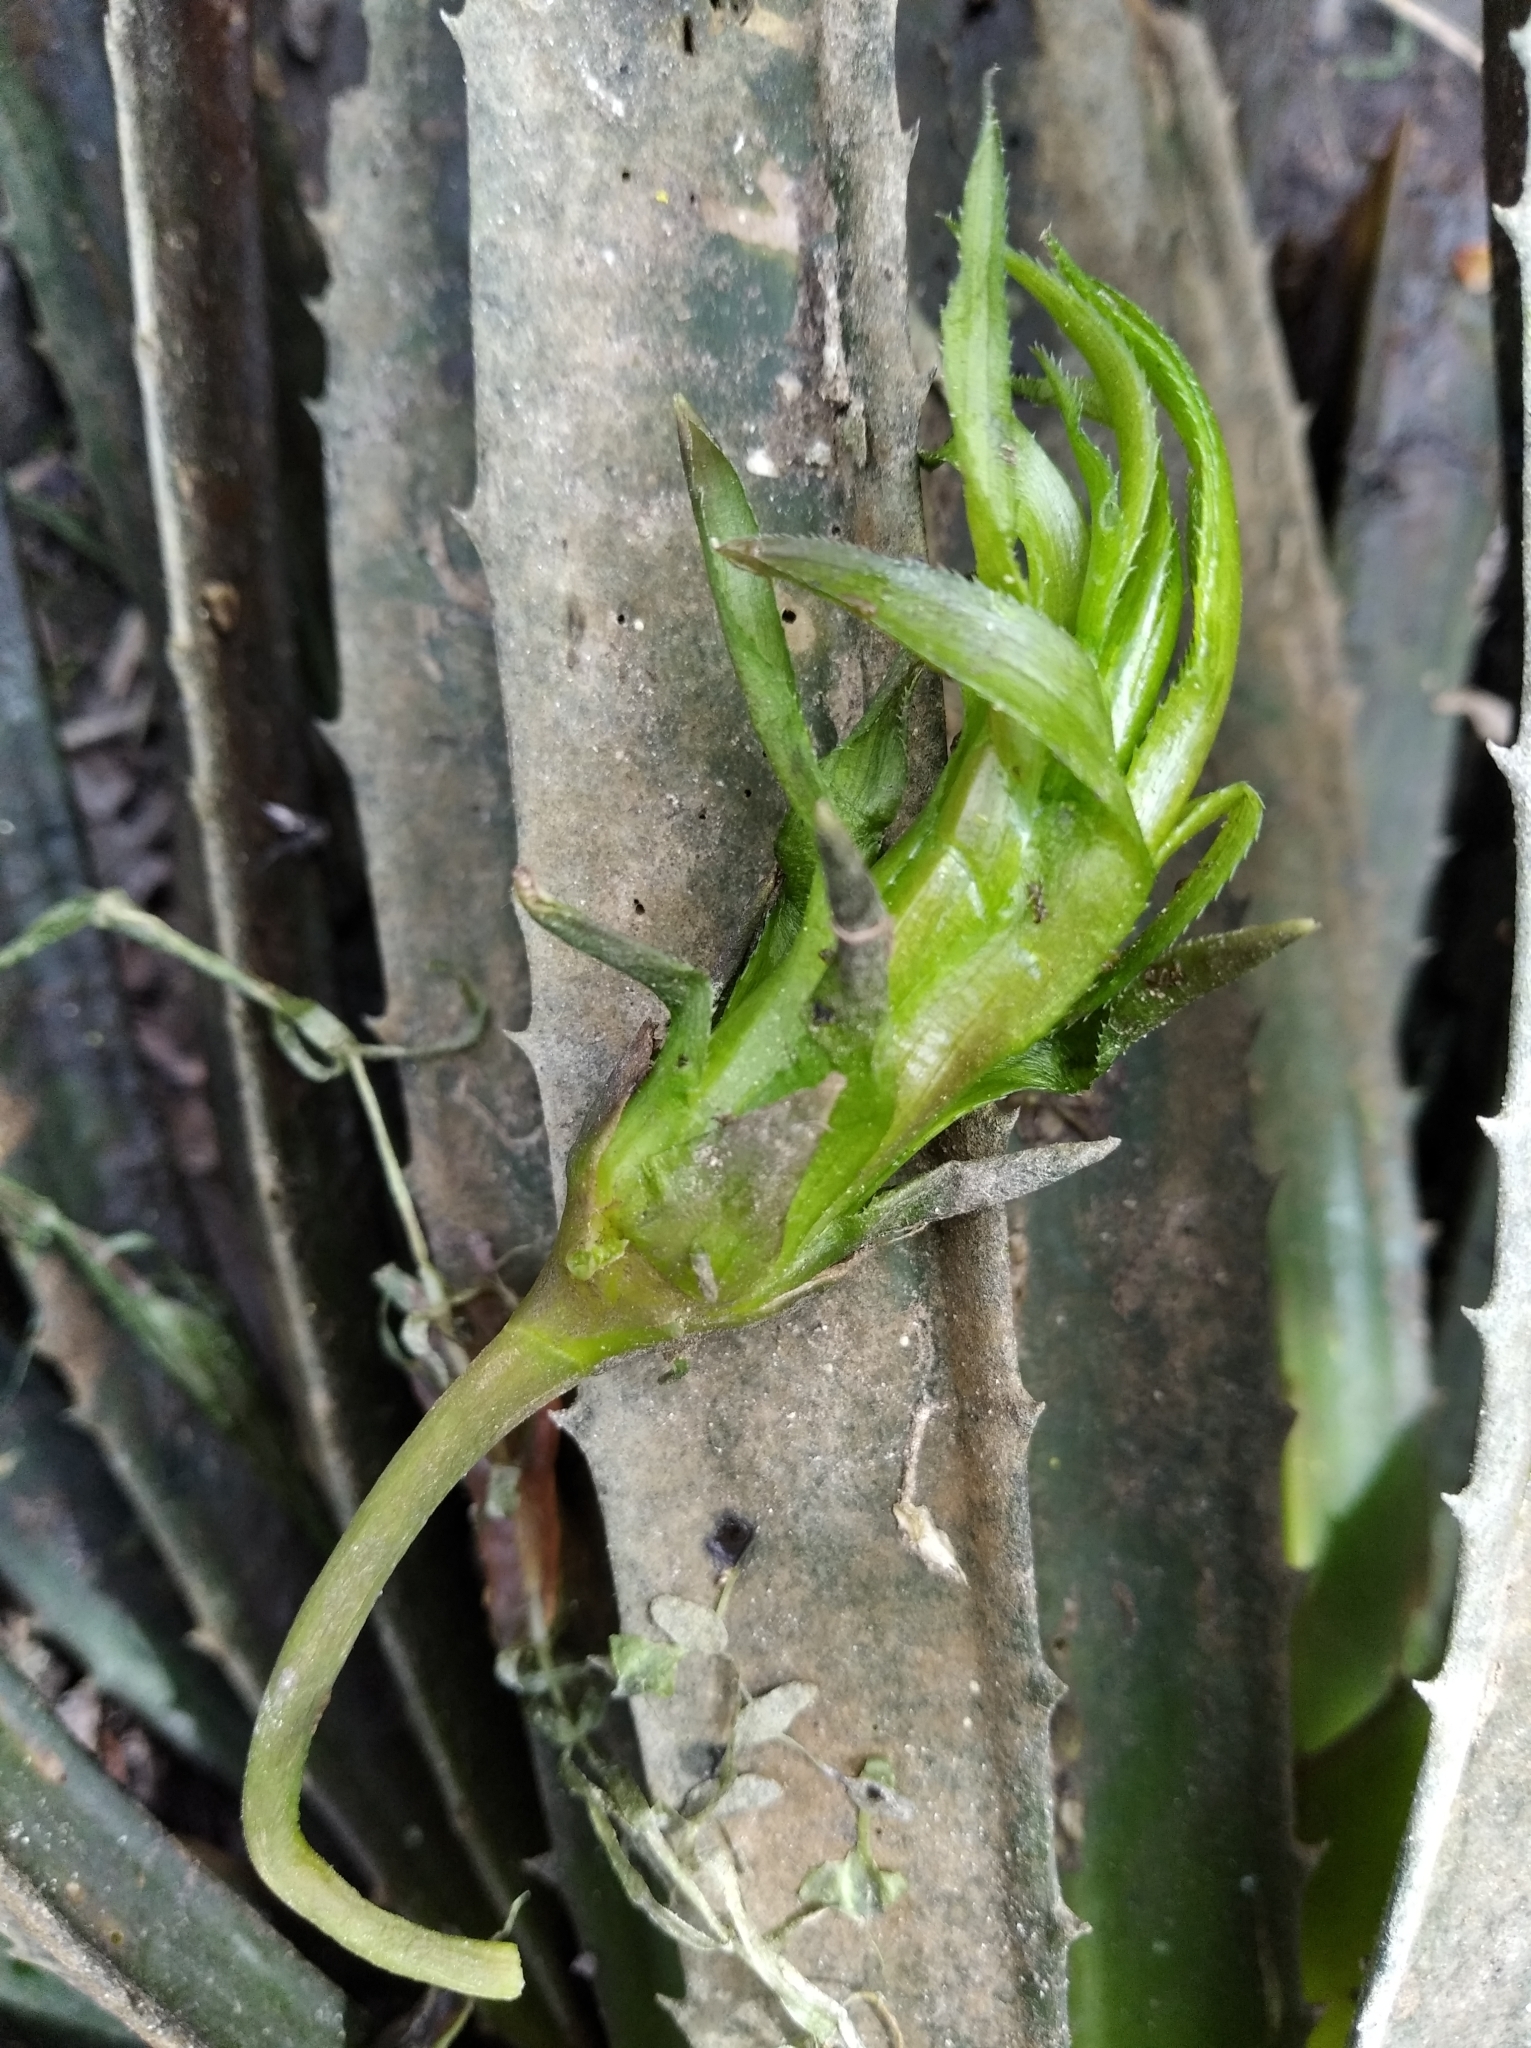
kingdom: Plantae
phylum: Tracheophyta
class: Liliopsida
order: Alismatales
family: Hydrocharitaceae
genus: Stratiotes
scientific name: Stratiotes aloides
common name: Water-soldier
